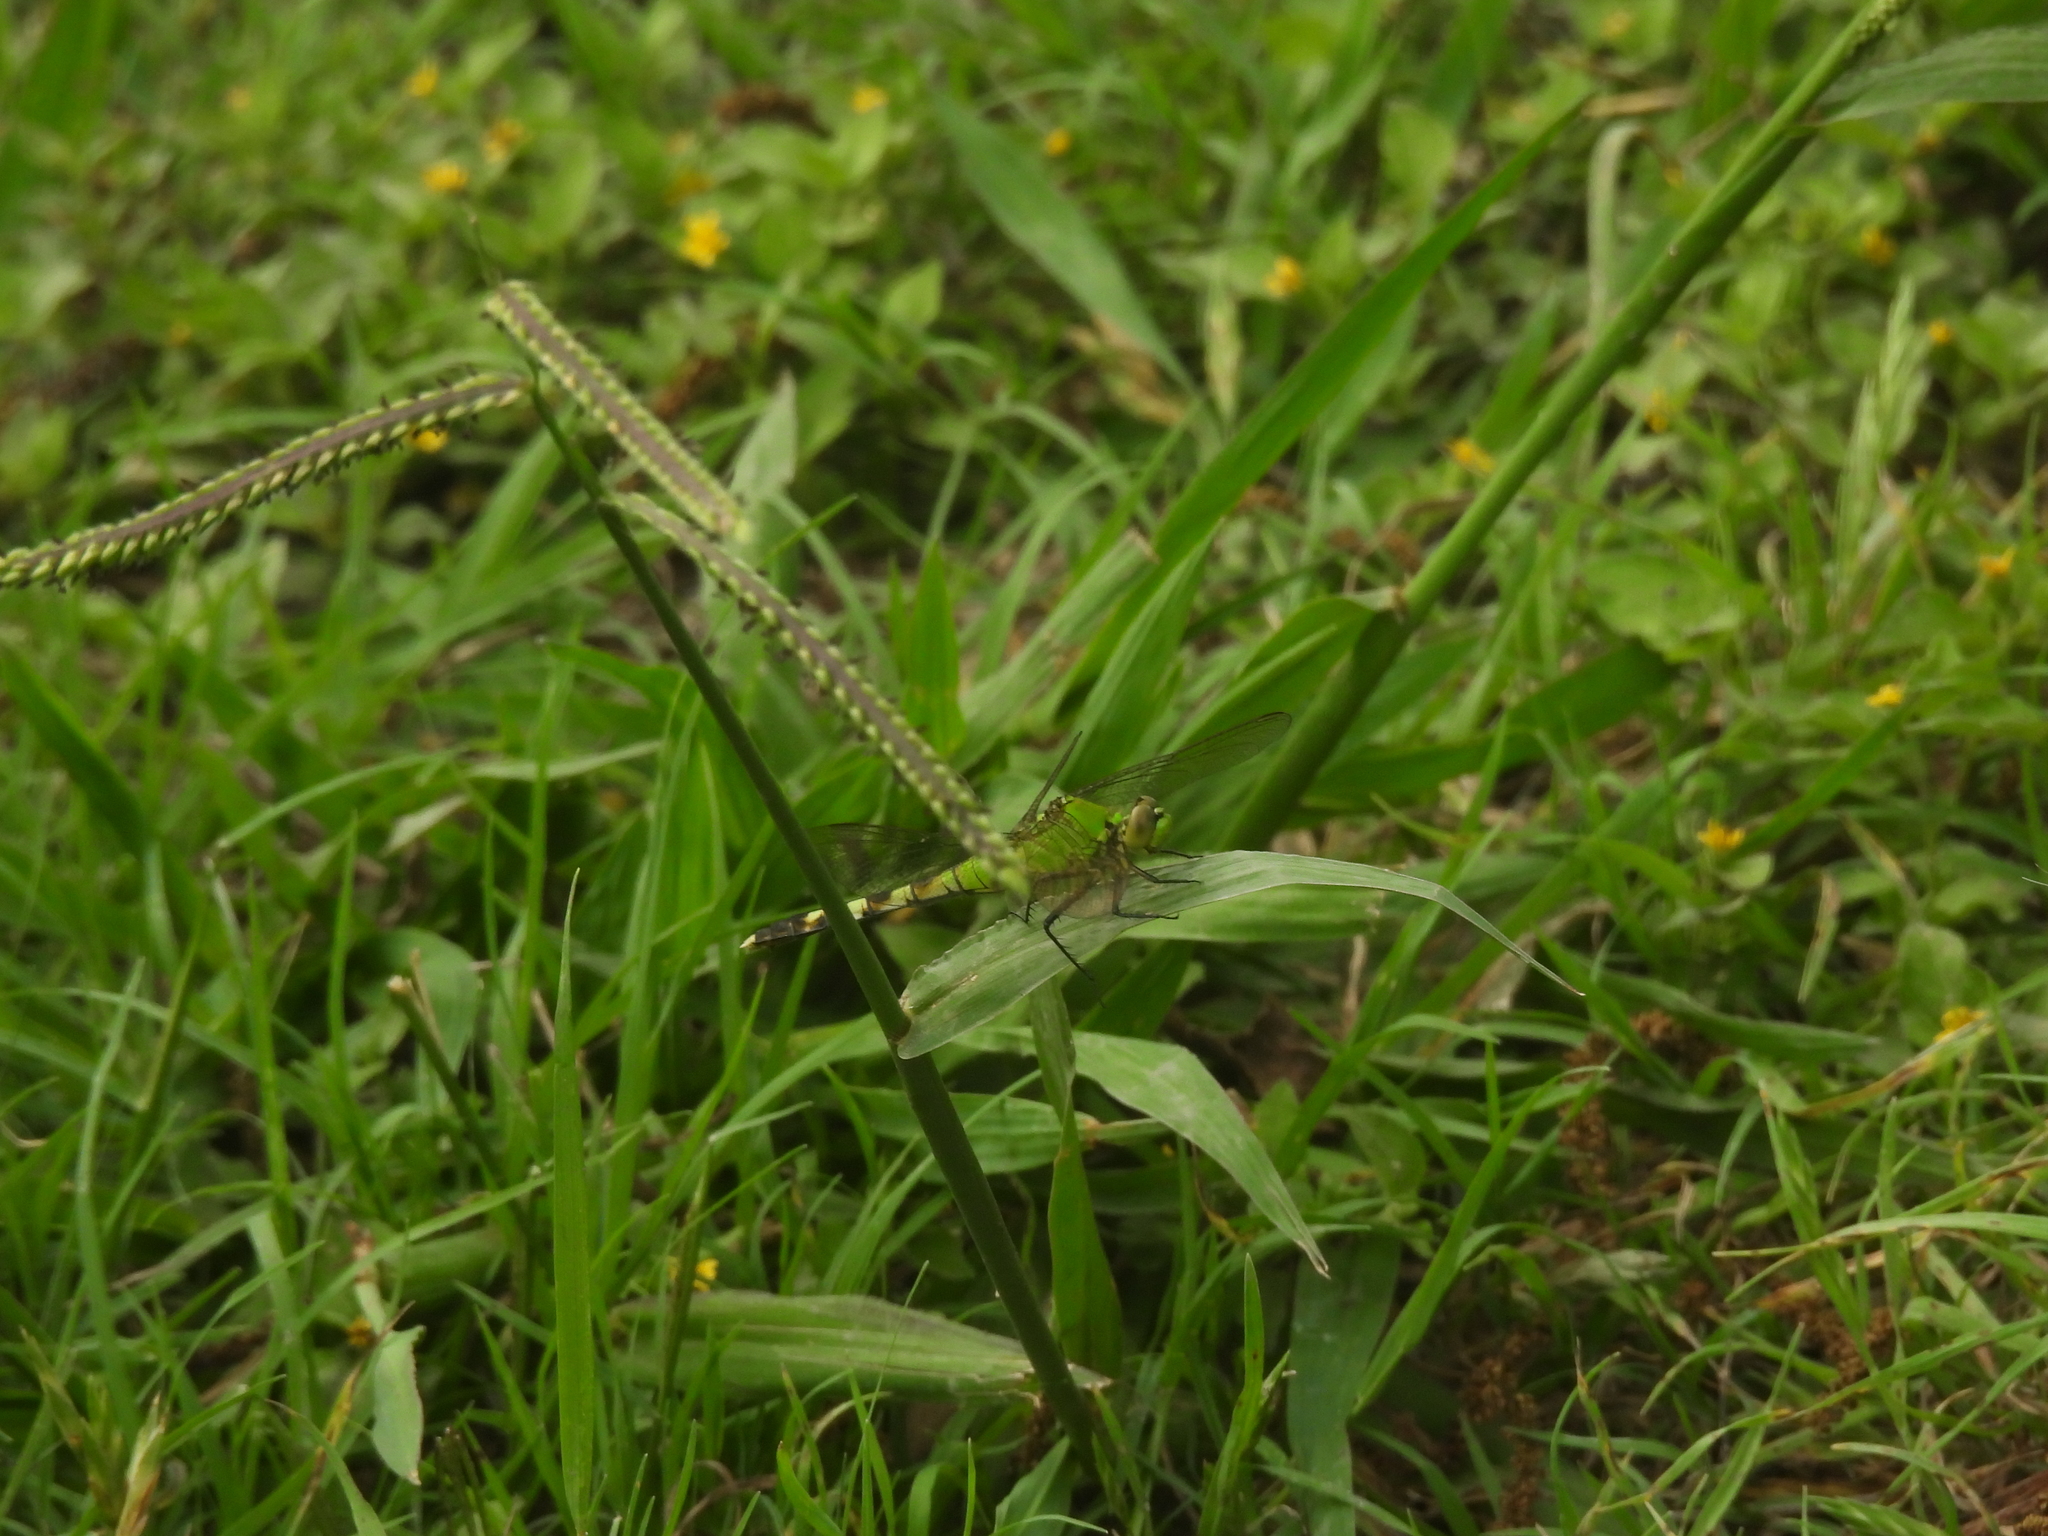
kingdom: Animalia
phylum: Arthropoda
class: Insecta
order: Odonata
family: Libellulidae
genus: Erythemis
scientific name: Erythemis simplicicollis
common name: Eastern pondhawk
